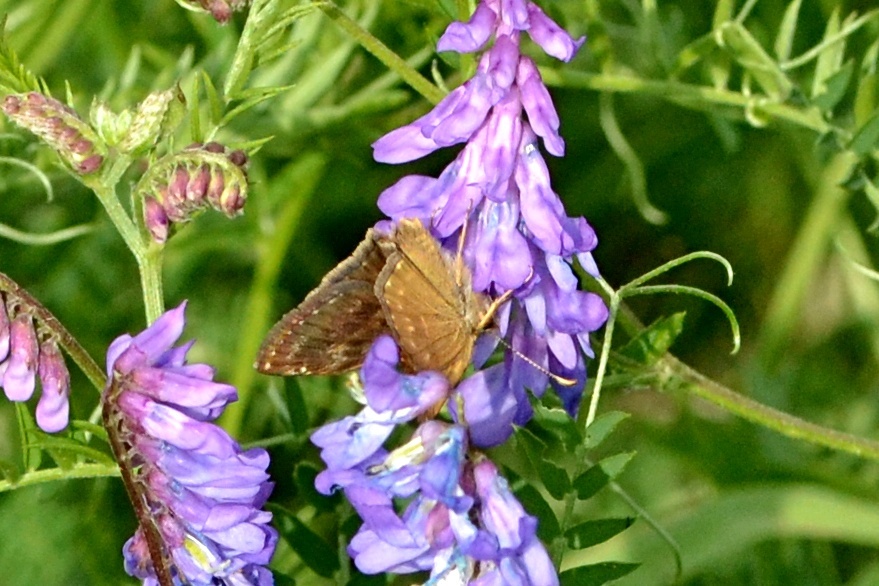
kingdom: Animalia
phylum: Arthropoda
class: Insecta
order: Lepidoptera
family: Hesperiidae
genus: Erynnis
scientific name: Erynnis tages
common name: Dingy skipper
